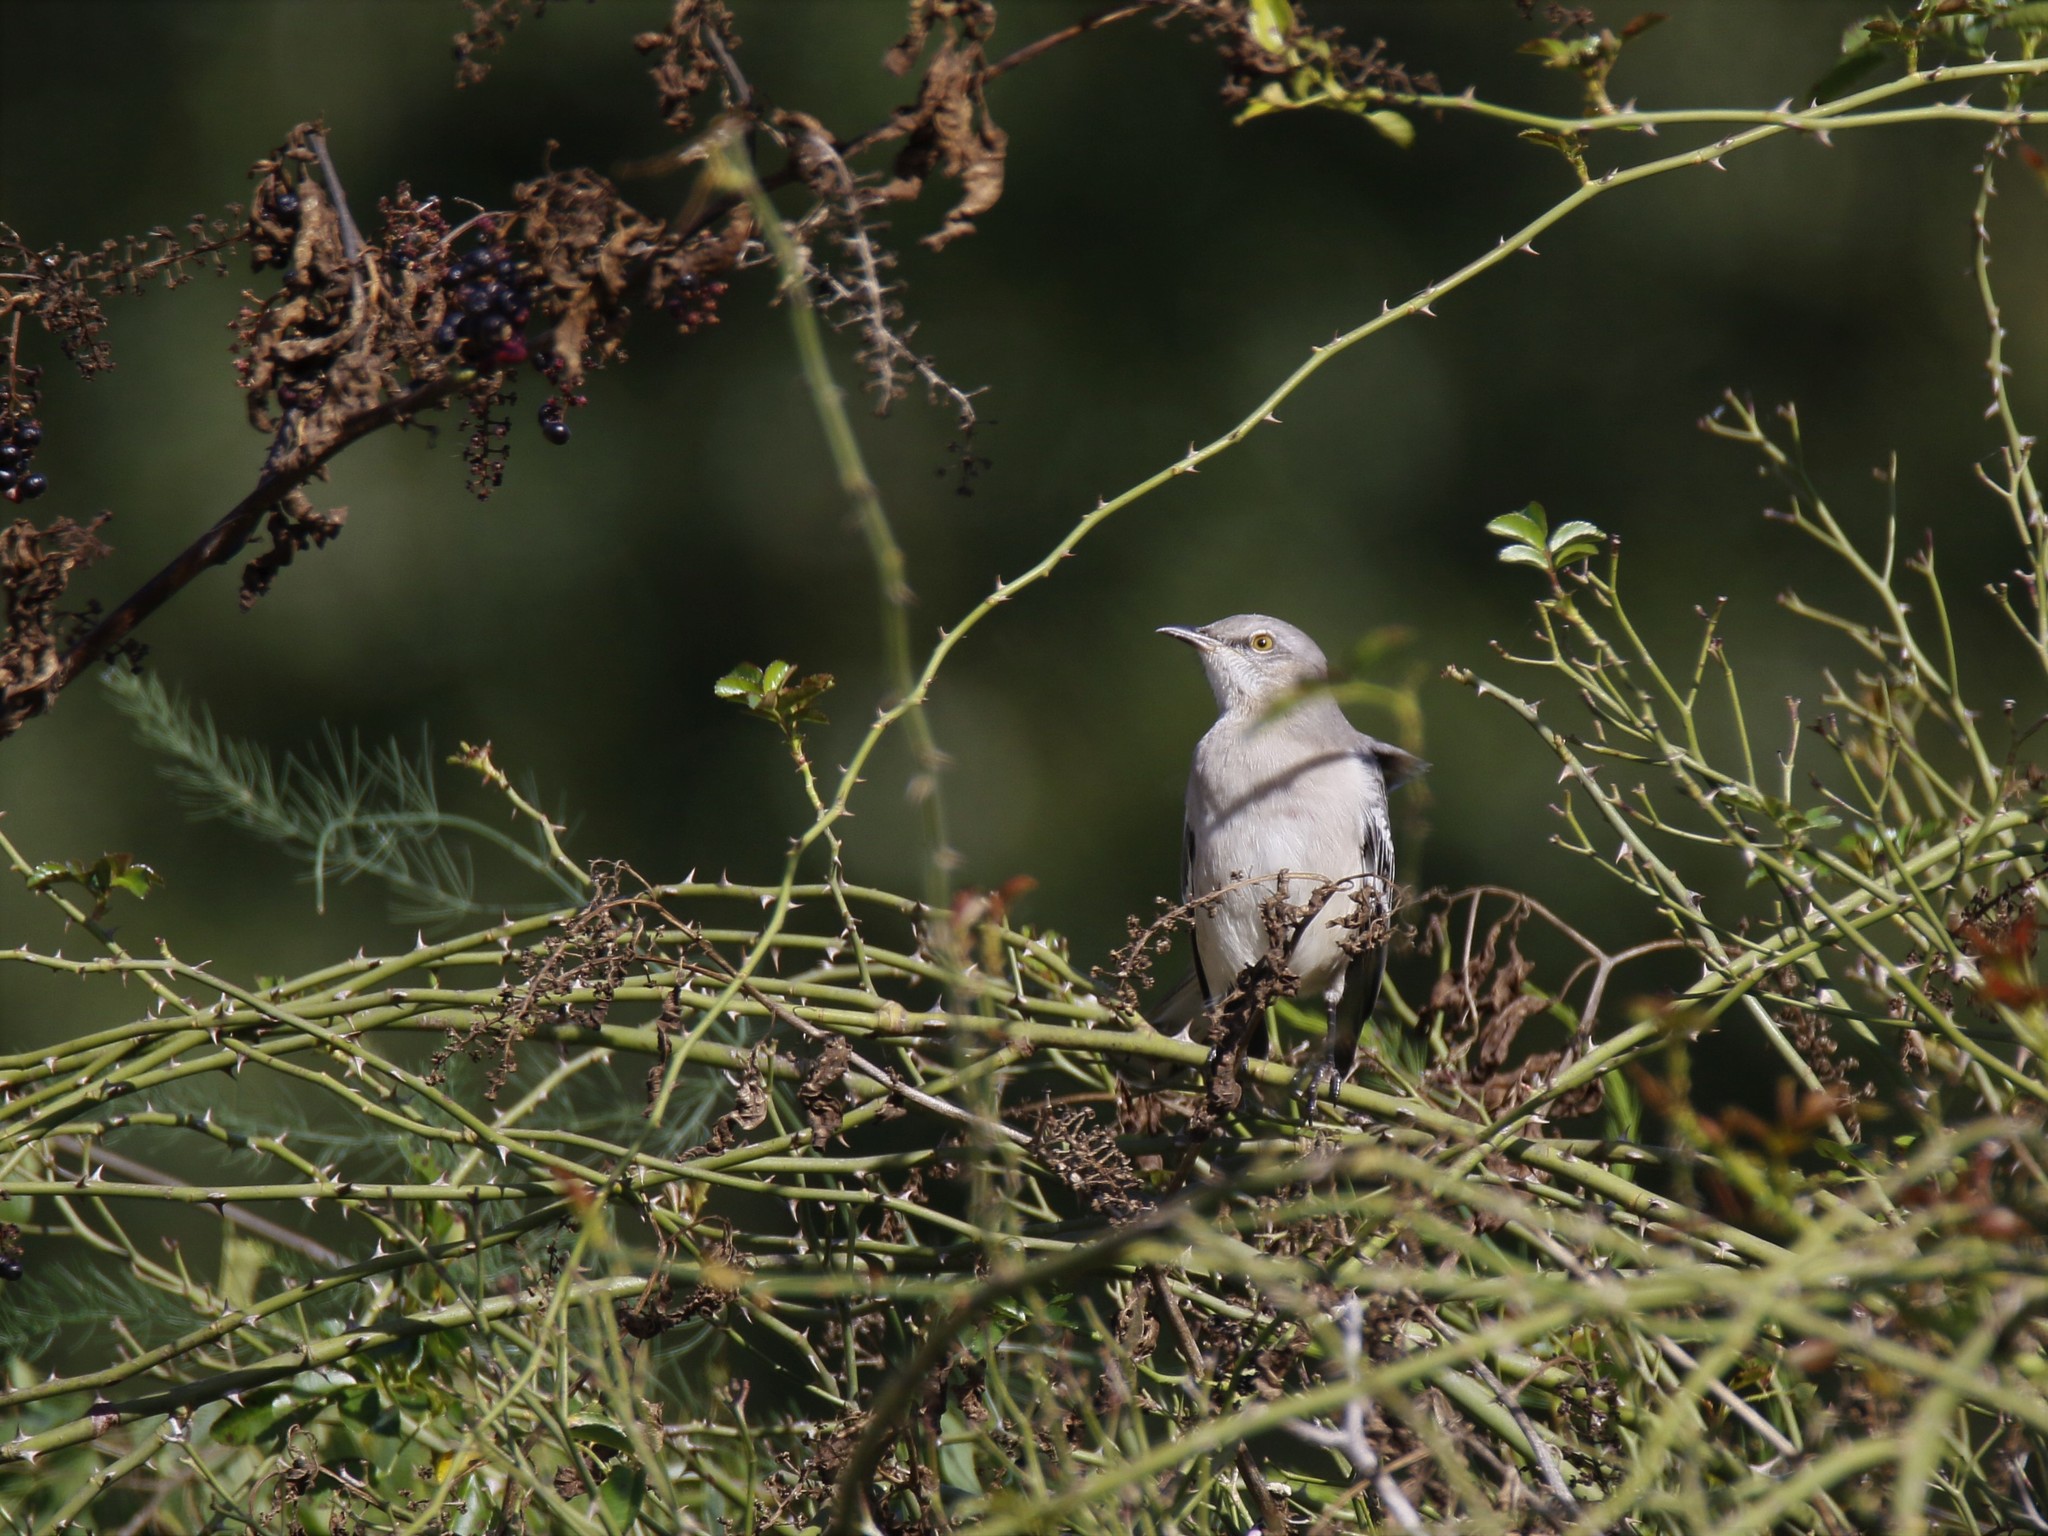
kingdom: Animalia
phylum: Chordata
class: Aves
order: Passeriformes
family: Mimidae
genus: Mimus
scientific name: Mimus polyglottos
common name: Northern mockingbird
